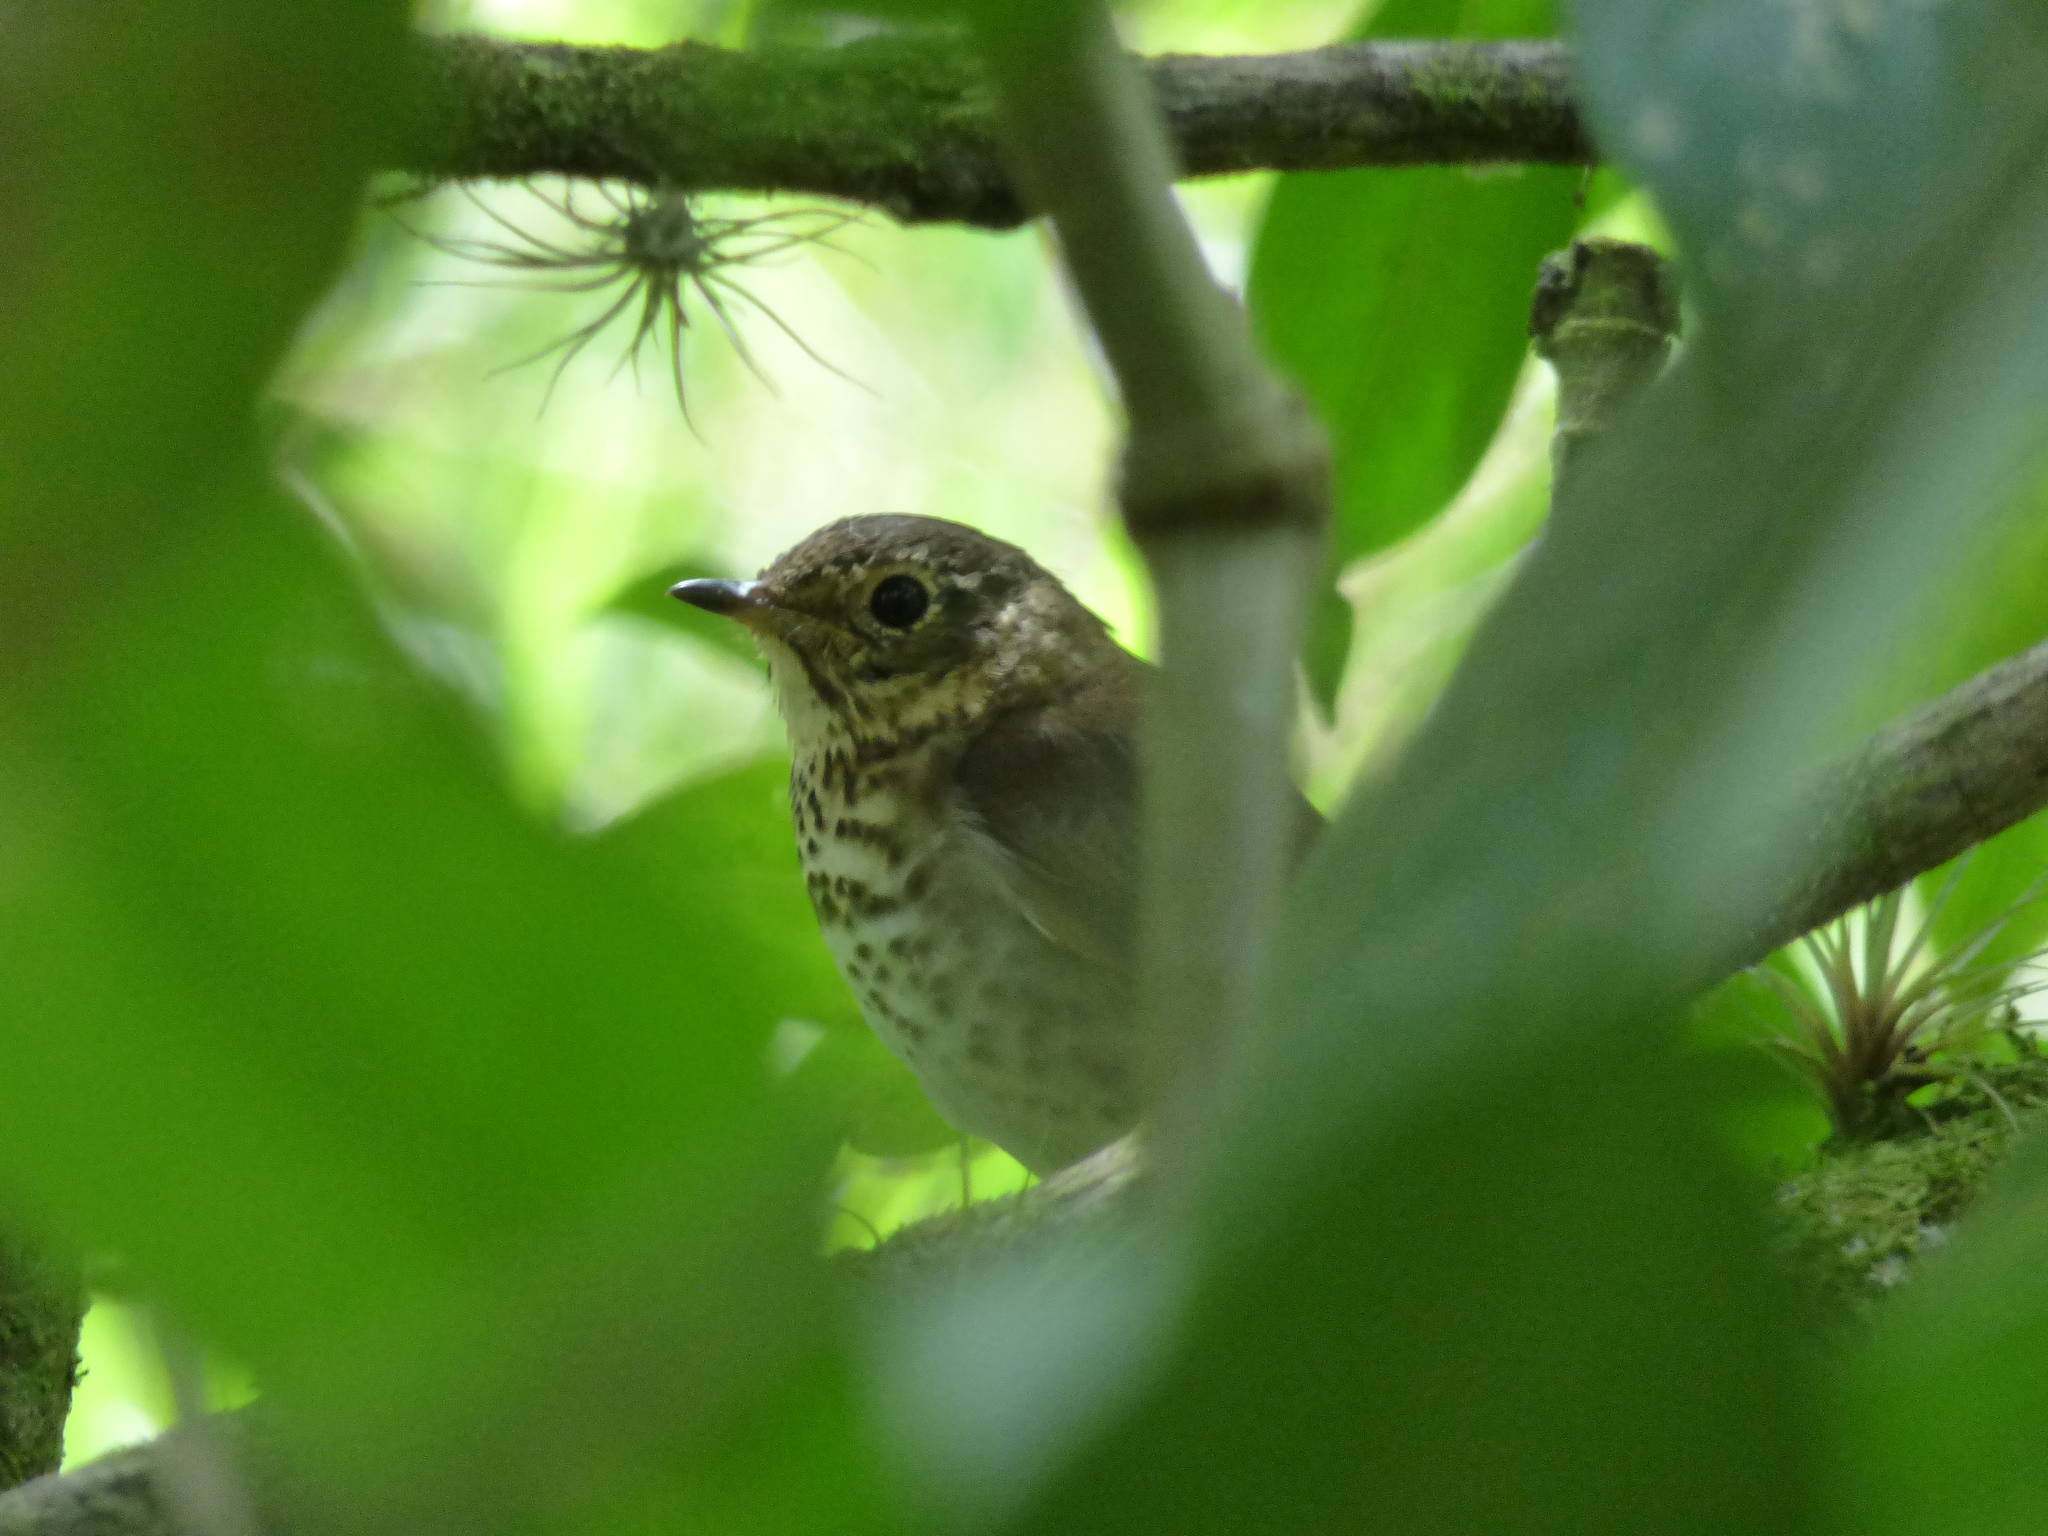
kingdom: Animalia
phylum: Chordata
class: Aves
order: Passeriformes
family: Turdidae
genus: Catharus
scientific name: Catharus ustulatus
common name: Swainson's thrush
